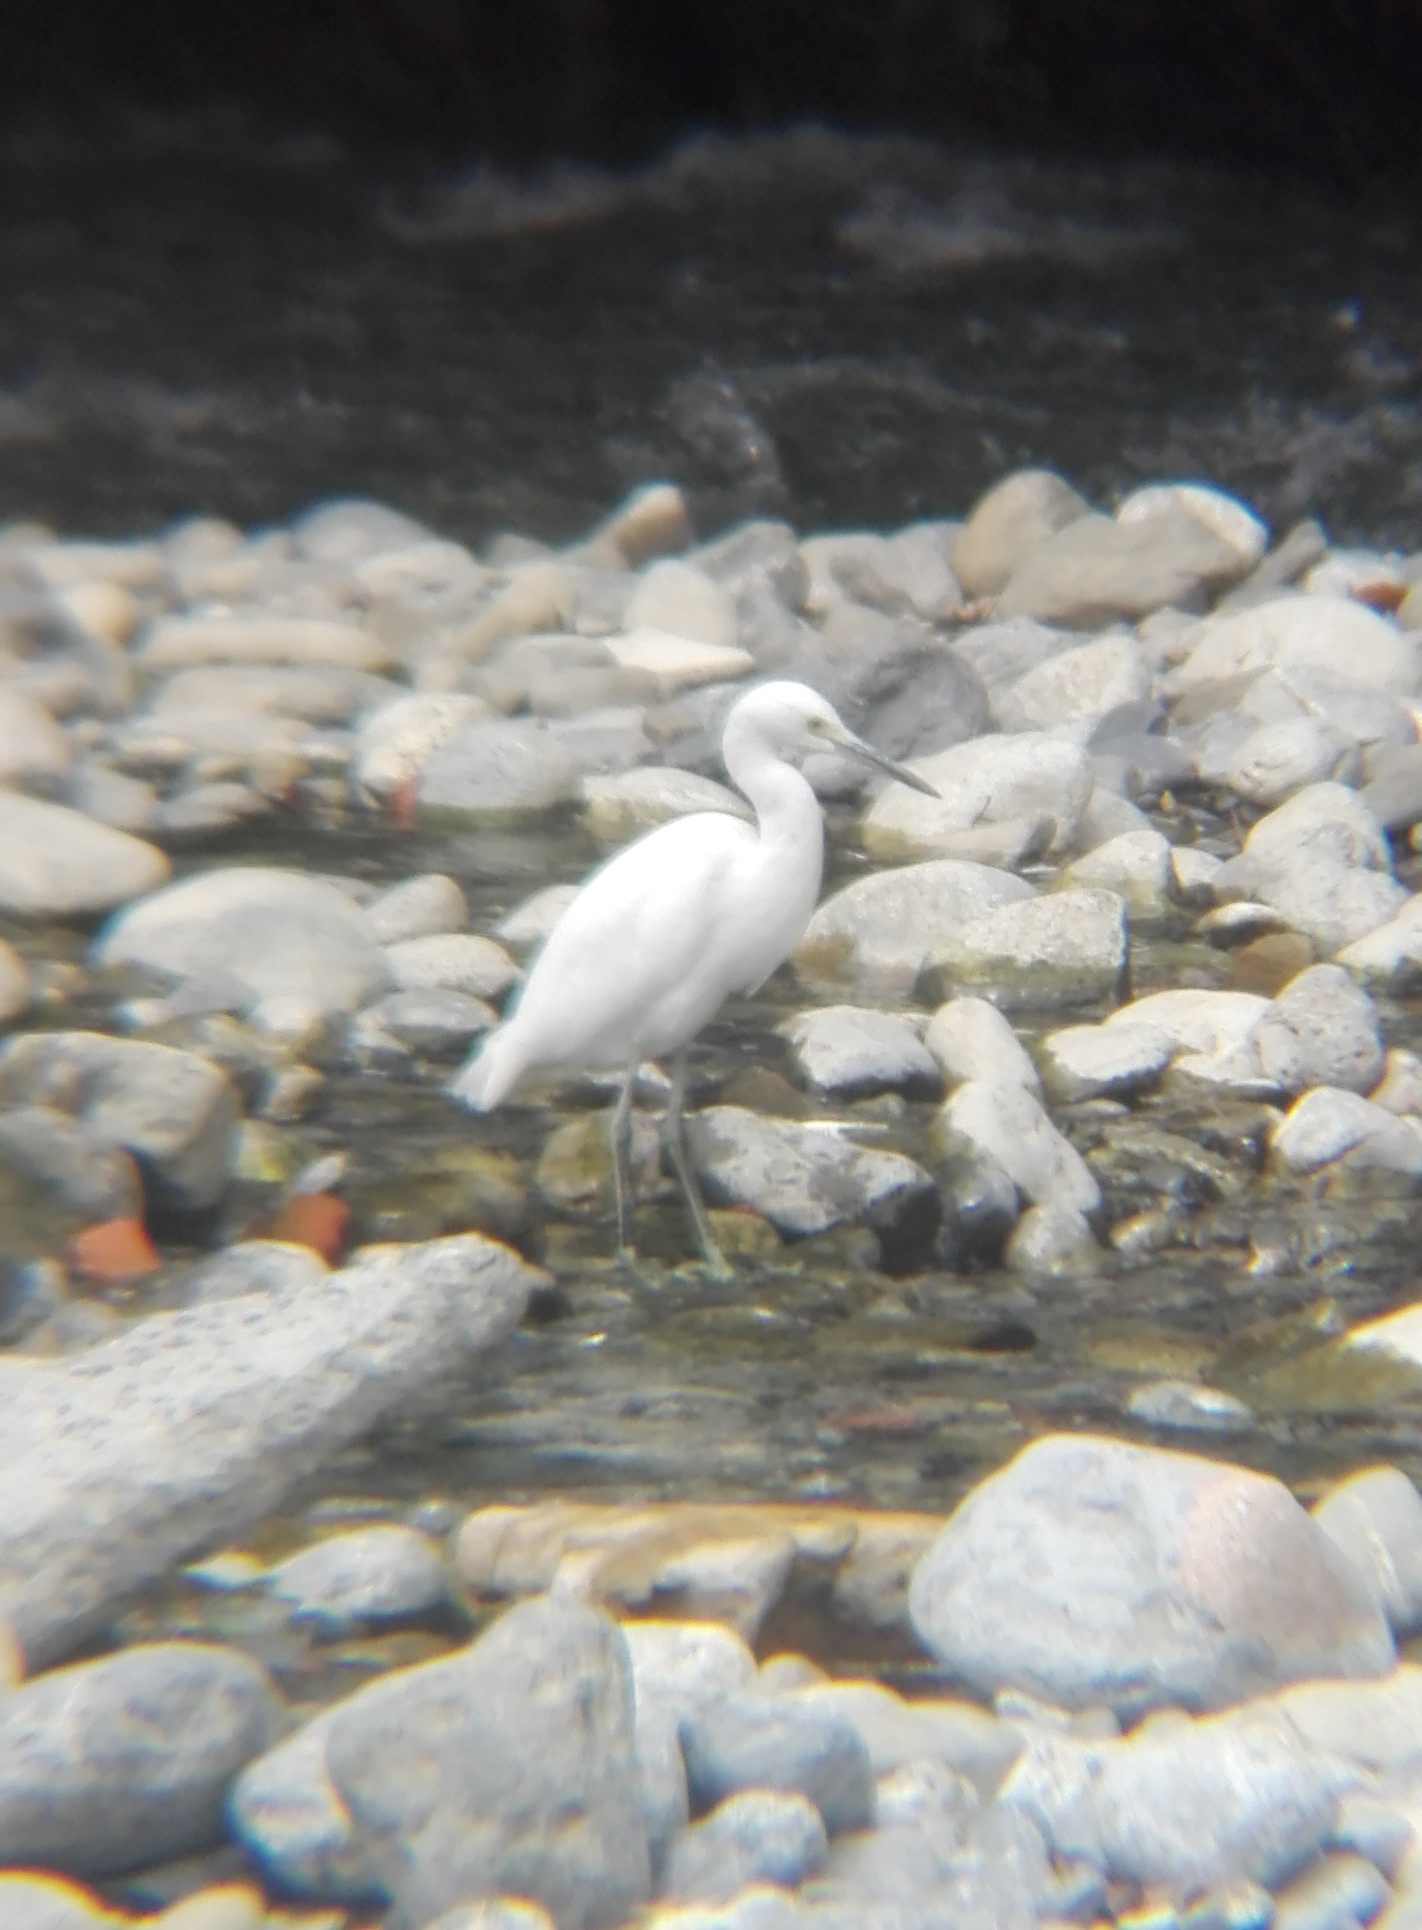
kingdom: Animalia
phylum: Chordata
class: Aves
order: Pelecaniformes
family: Ardeidae
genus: Egretta
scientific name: Egretta thula
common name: Snowy egret
